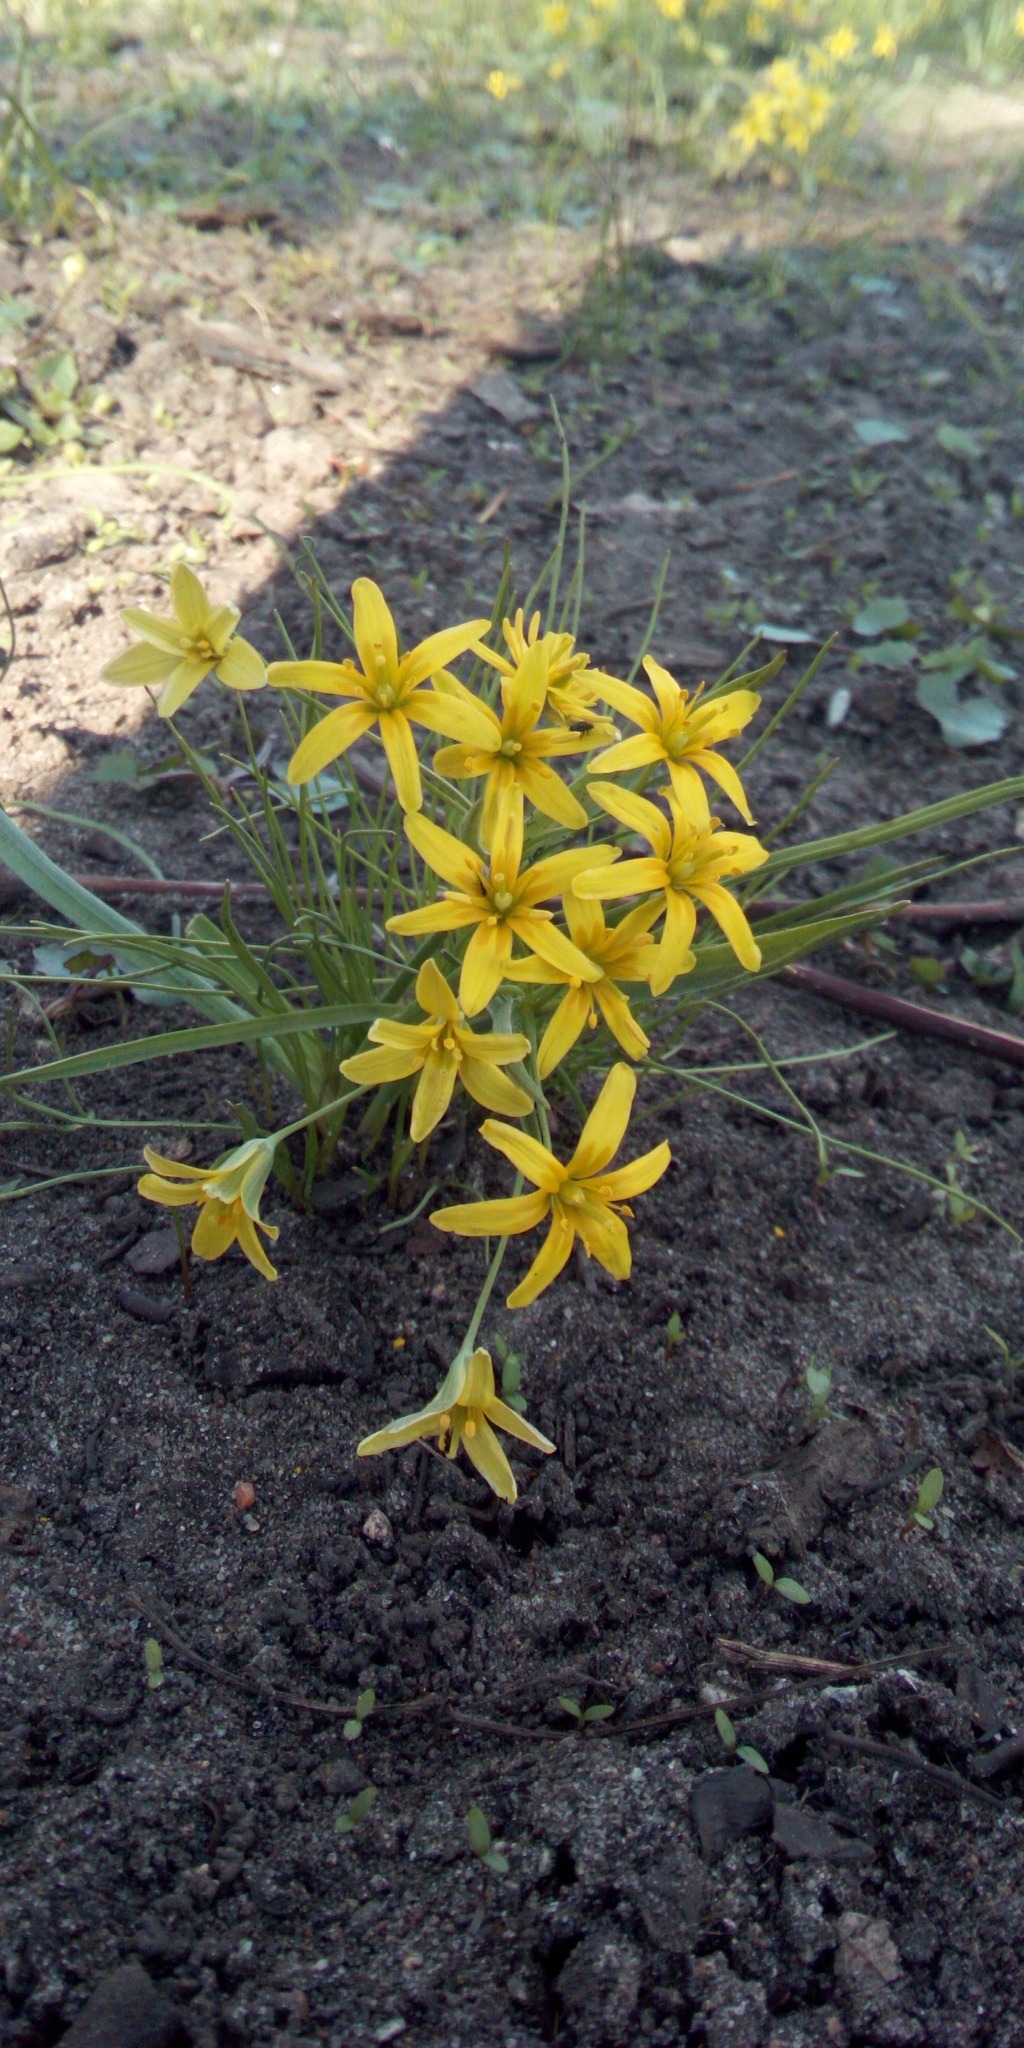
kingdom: Plantae
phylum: Tracheophyta
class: Liliopsida
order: Liliales
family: Liliaceae
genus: Gagea
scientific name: Gagea lutea
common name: Yellow star-of-bethlehem
